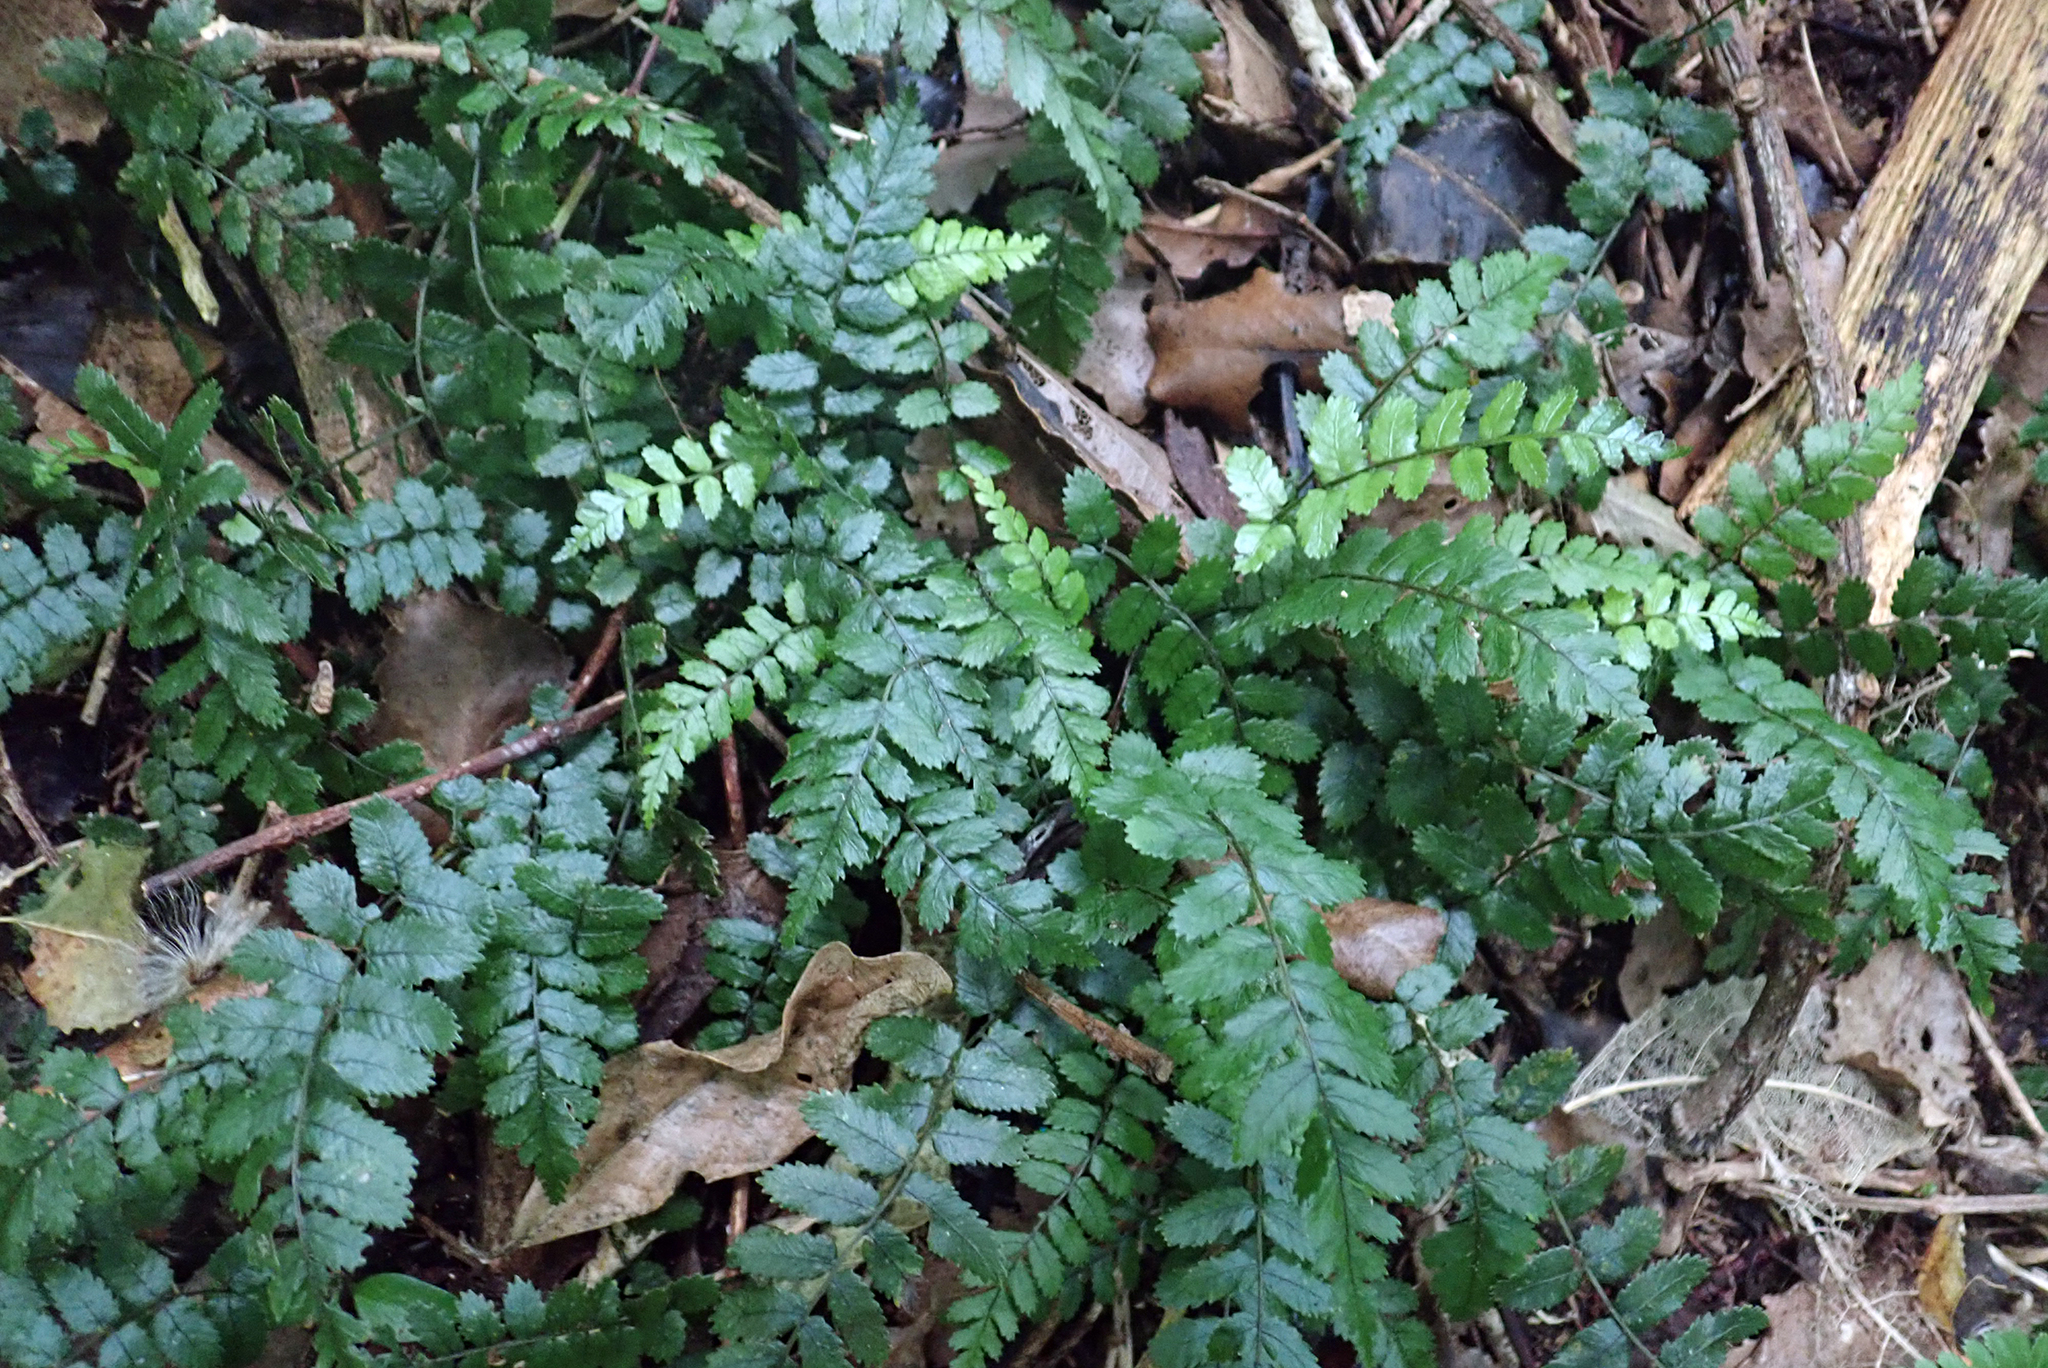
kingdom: Plantae
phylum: Tracheophyta
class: Polypodiopsida
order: Polypodiales
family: Blechnaceae
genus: Icarus
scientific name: Icarus filiformis
